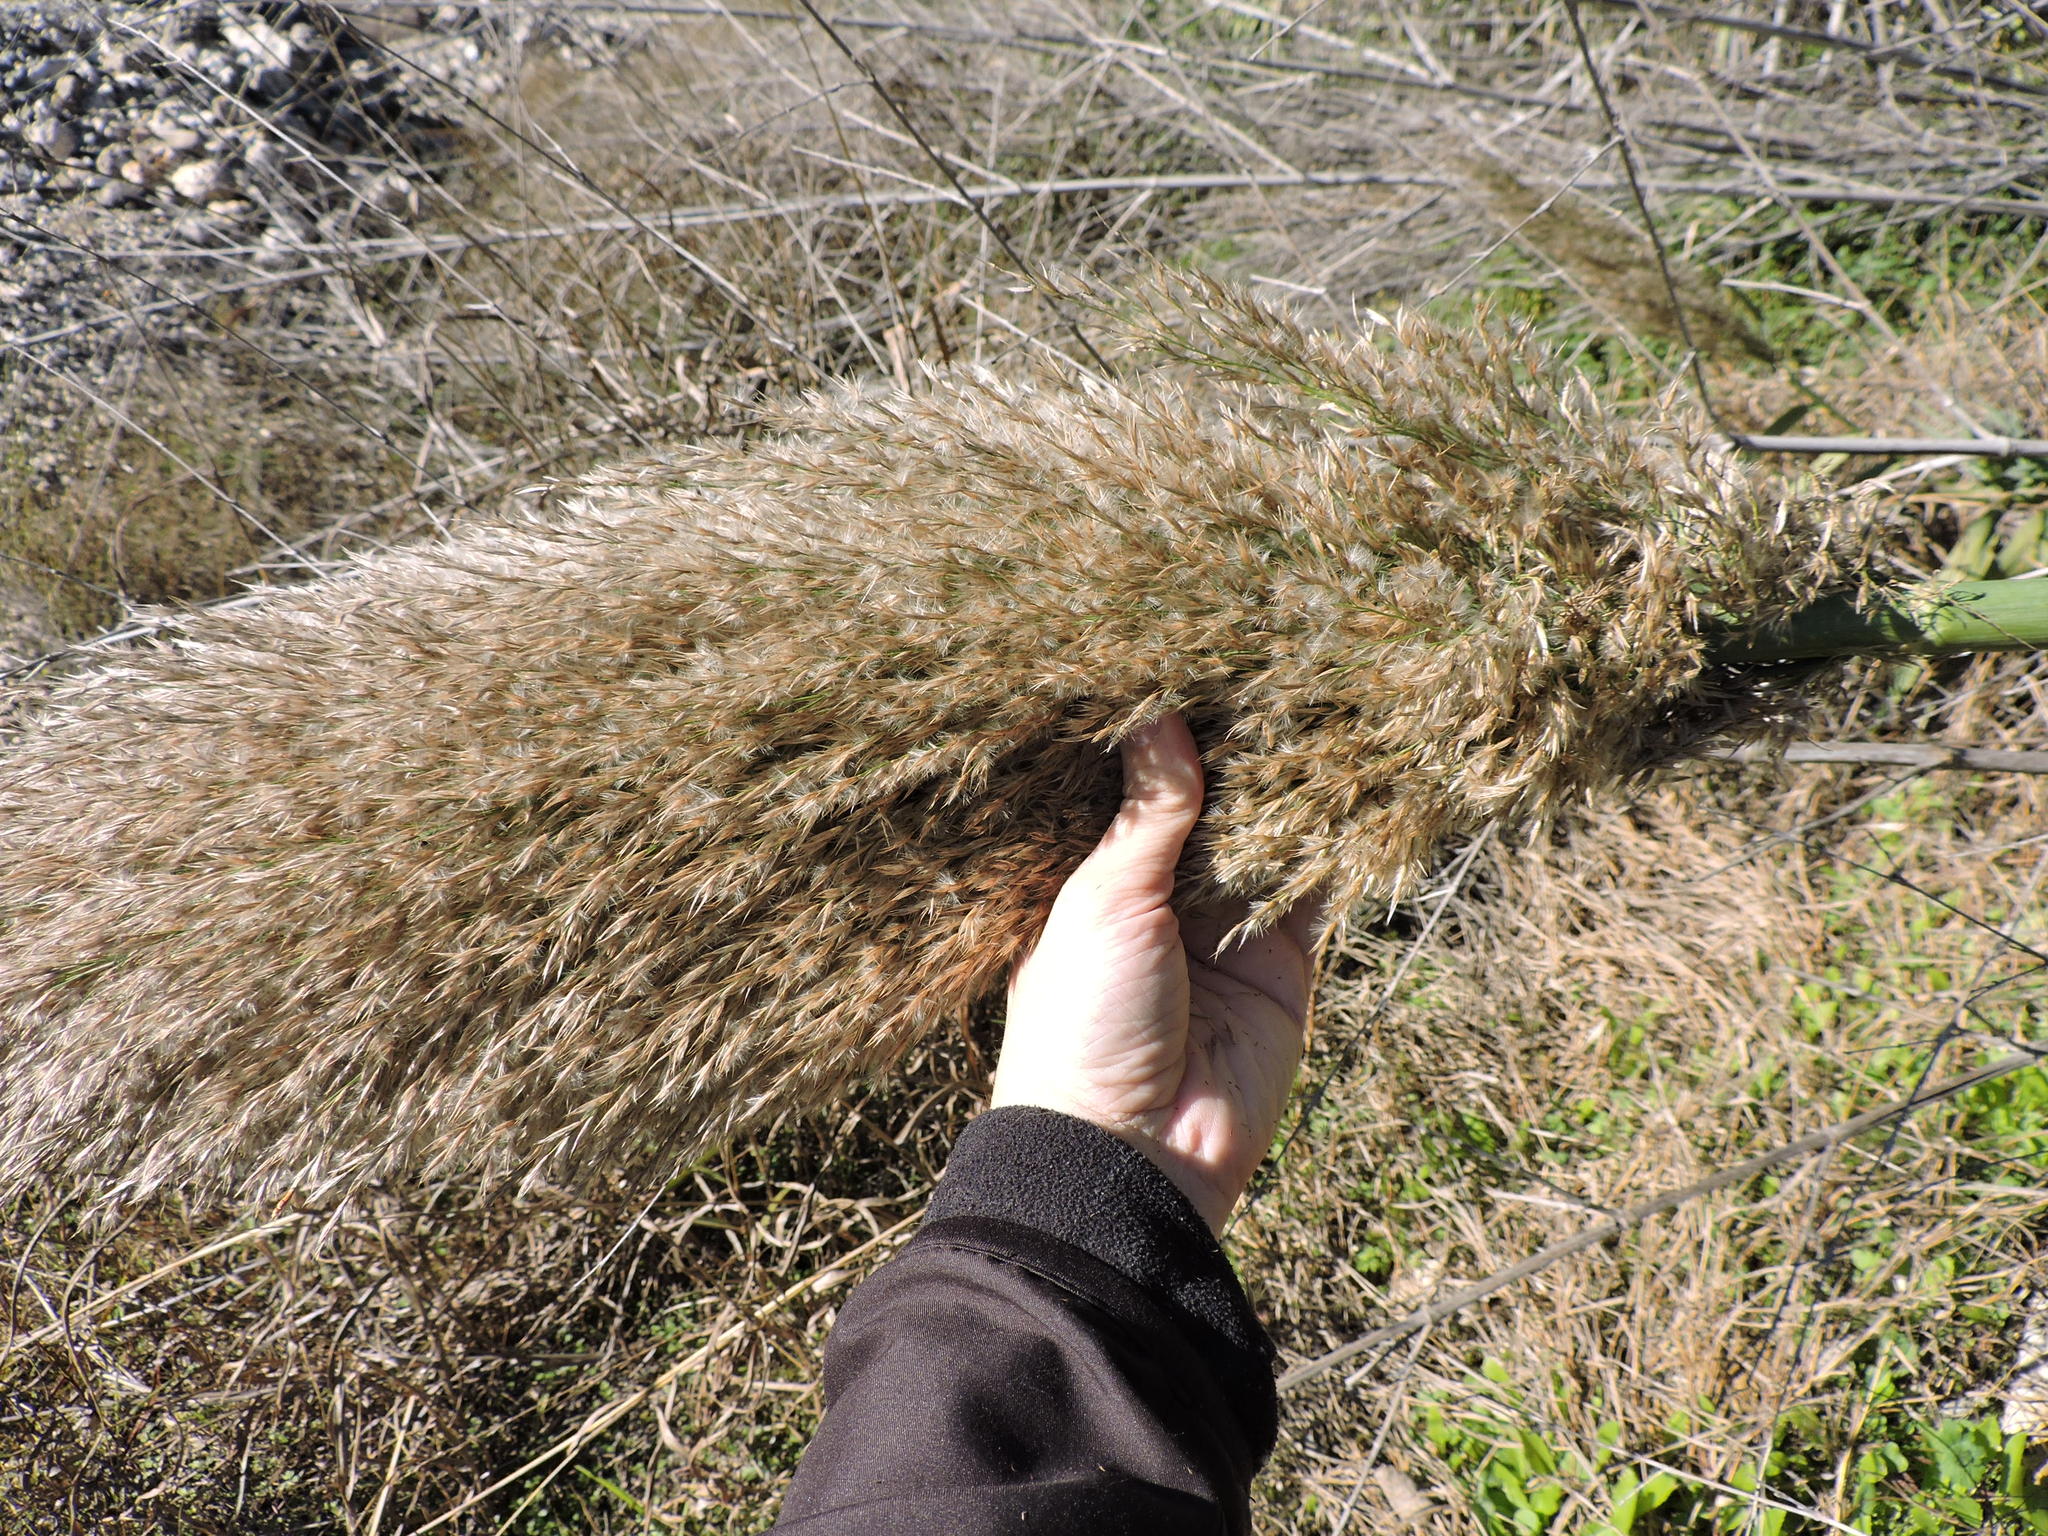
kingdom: Plantae
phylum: Tracheophyta
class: Liliopsida
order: Poales
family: Poaceae
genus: Arundo
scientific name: Arundo donax
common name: Giant reed
